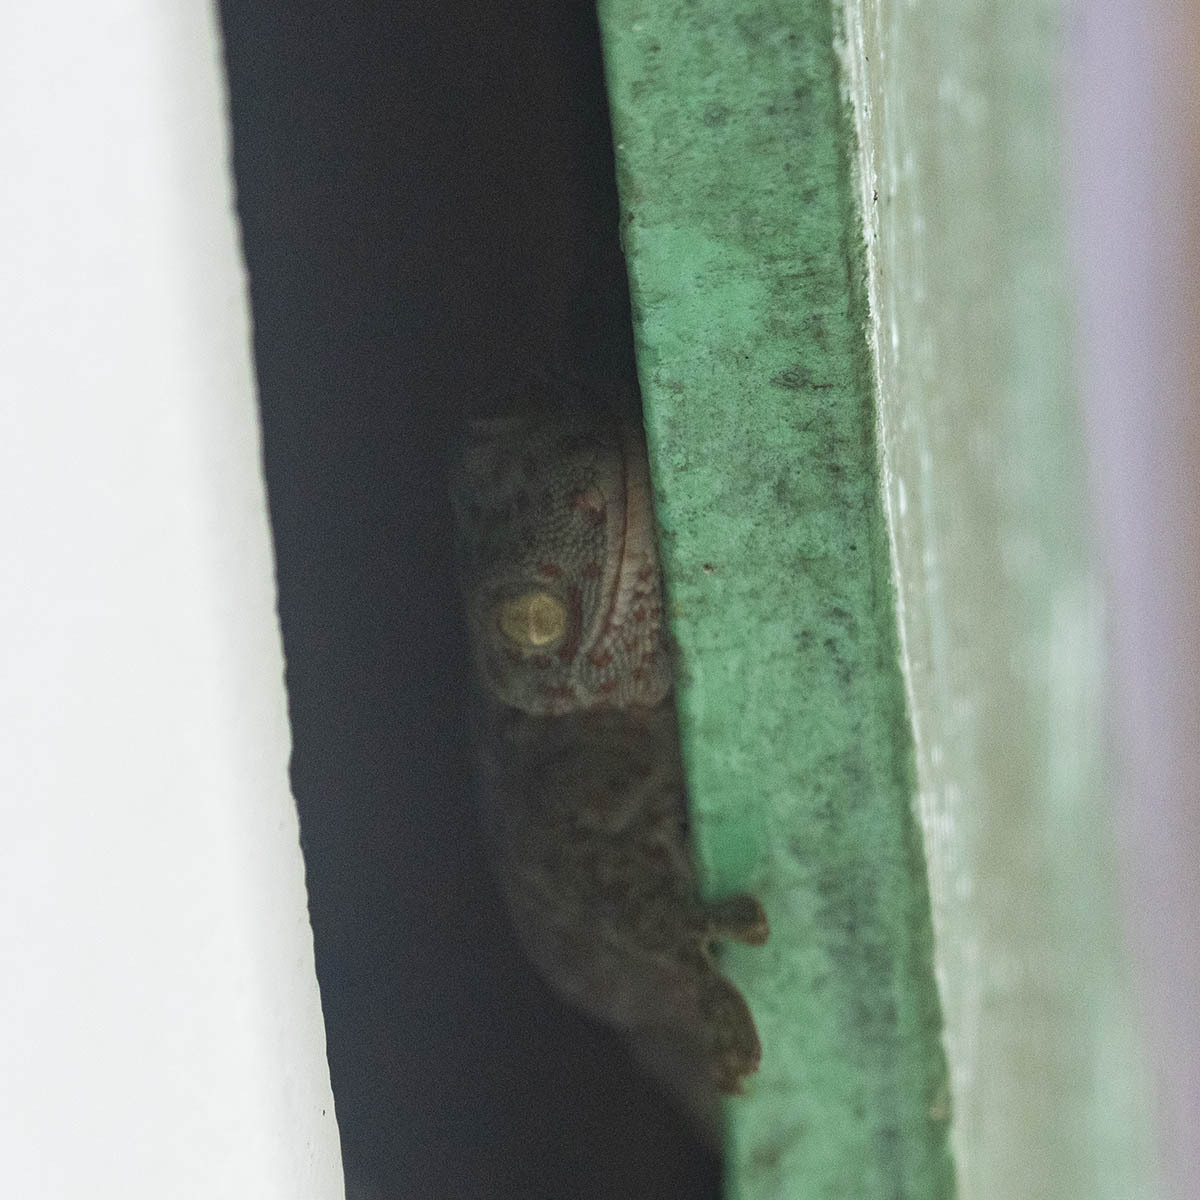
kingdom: Animalia
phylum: Chordata
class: Squamata
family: Gekkonidae
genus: Gekko
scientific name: Gekko gecko
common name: Tokay gecko
